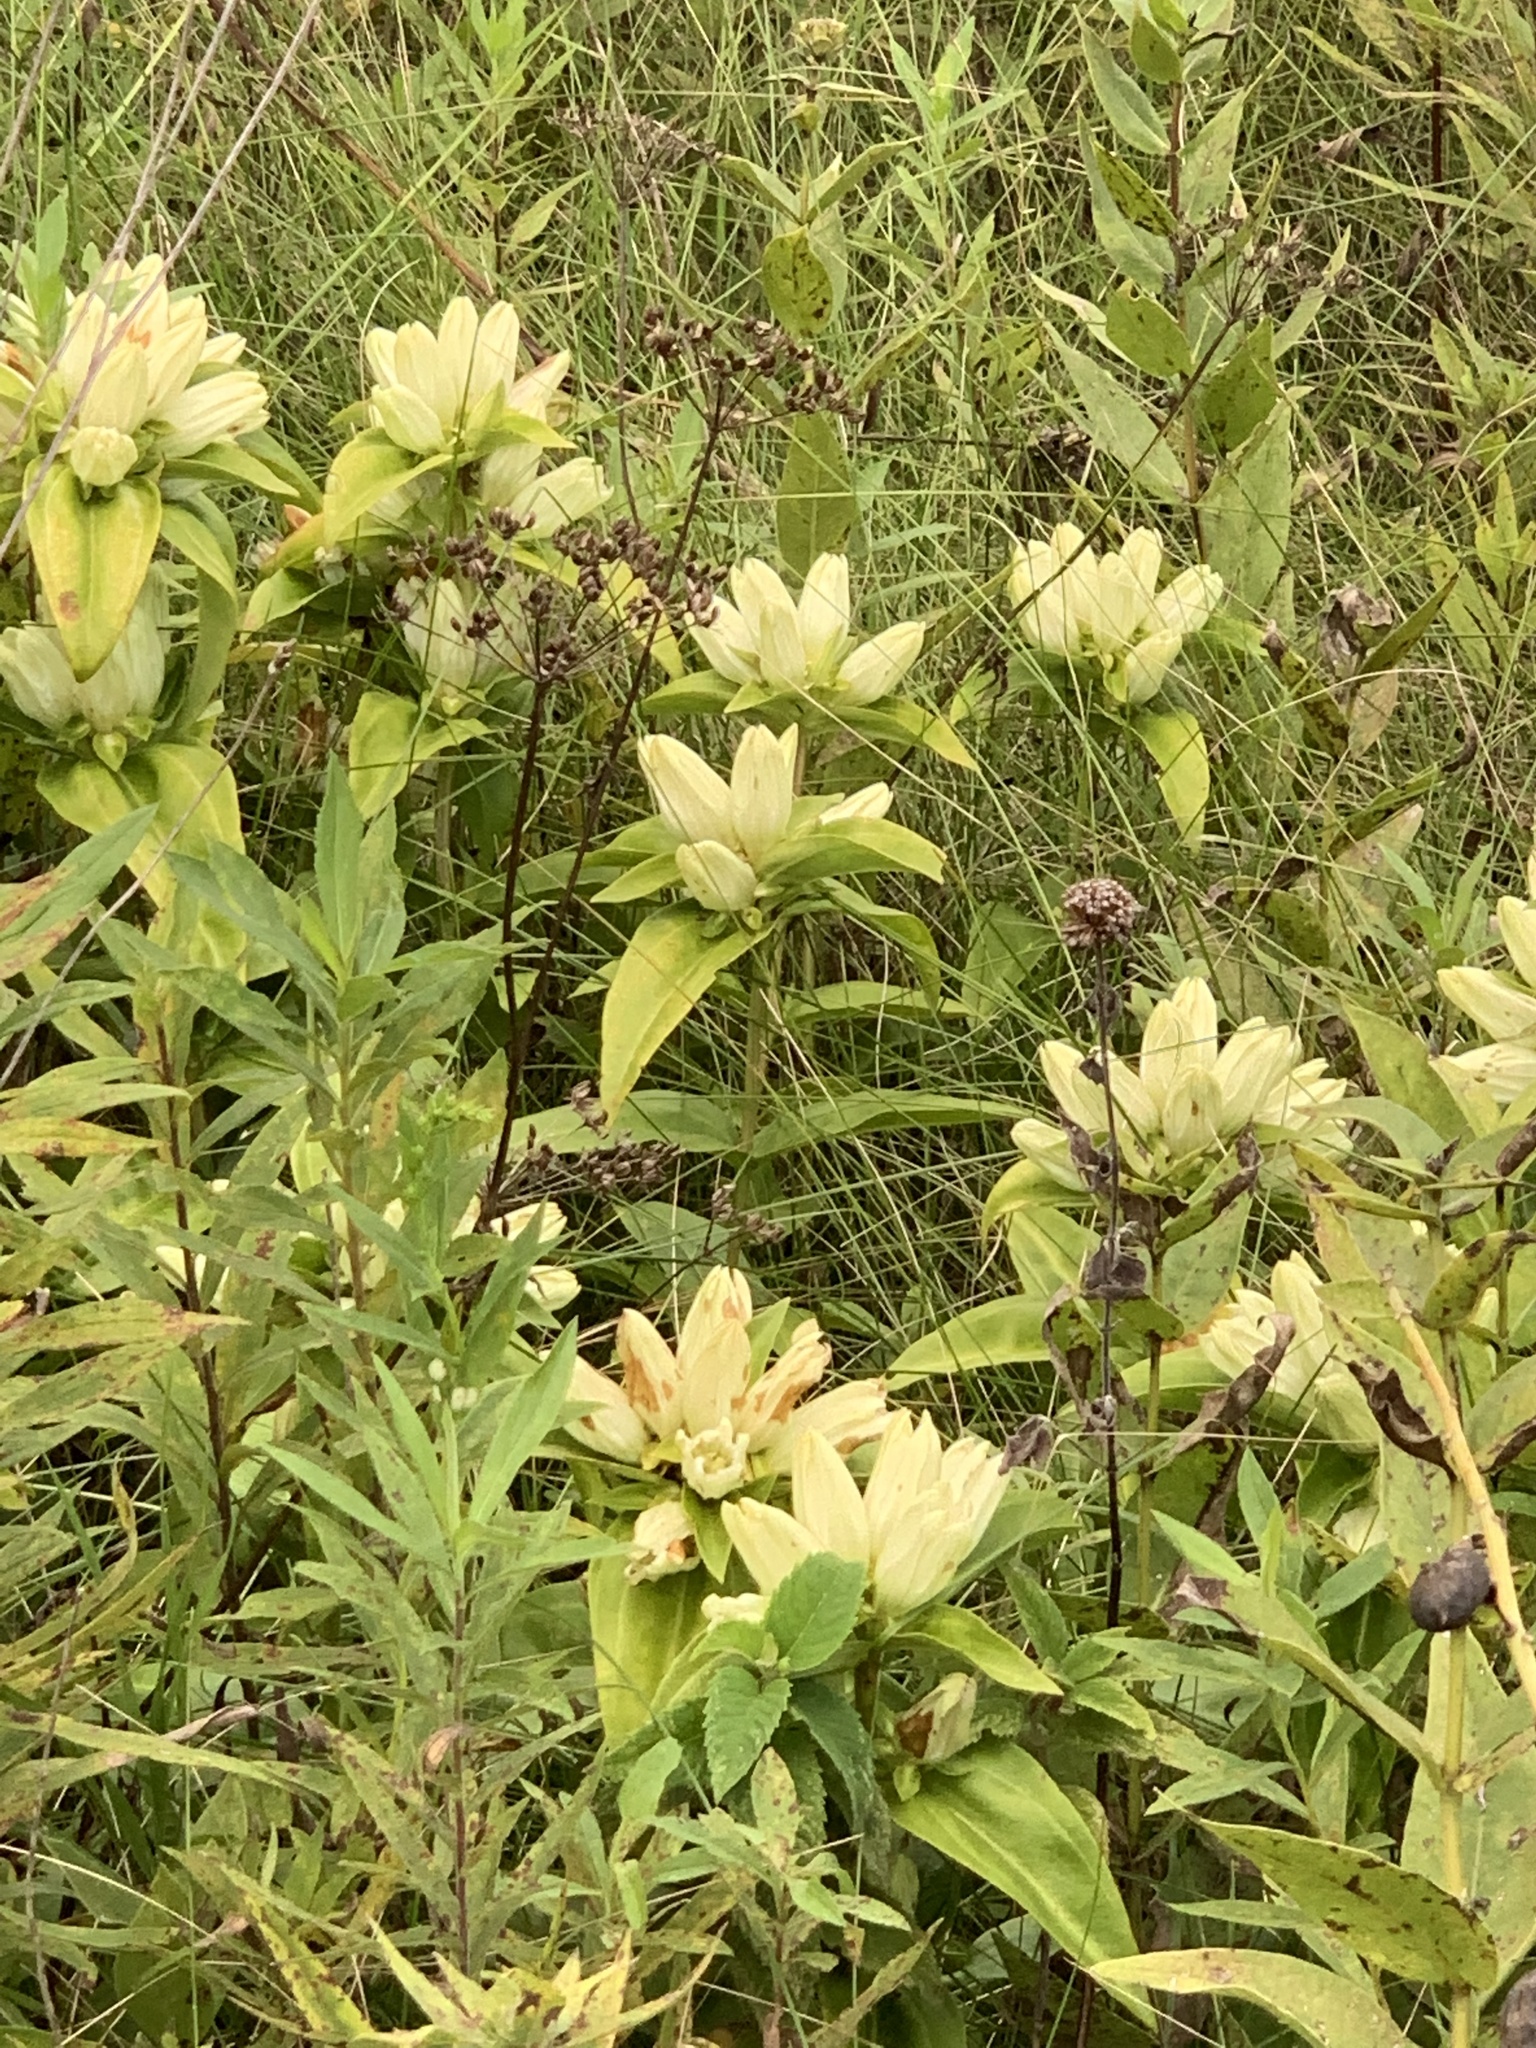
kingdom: Plantae
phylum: Tracheophyta
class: Magnoliopsida
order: Gentianales
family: Gentianaceae
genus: Gentiana
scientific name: Gentiana alba
